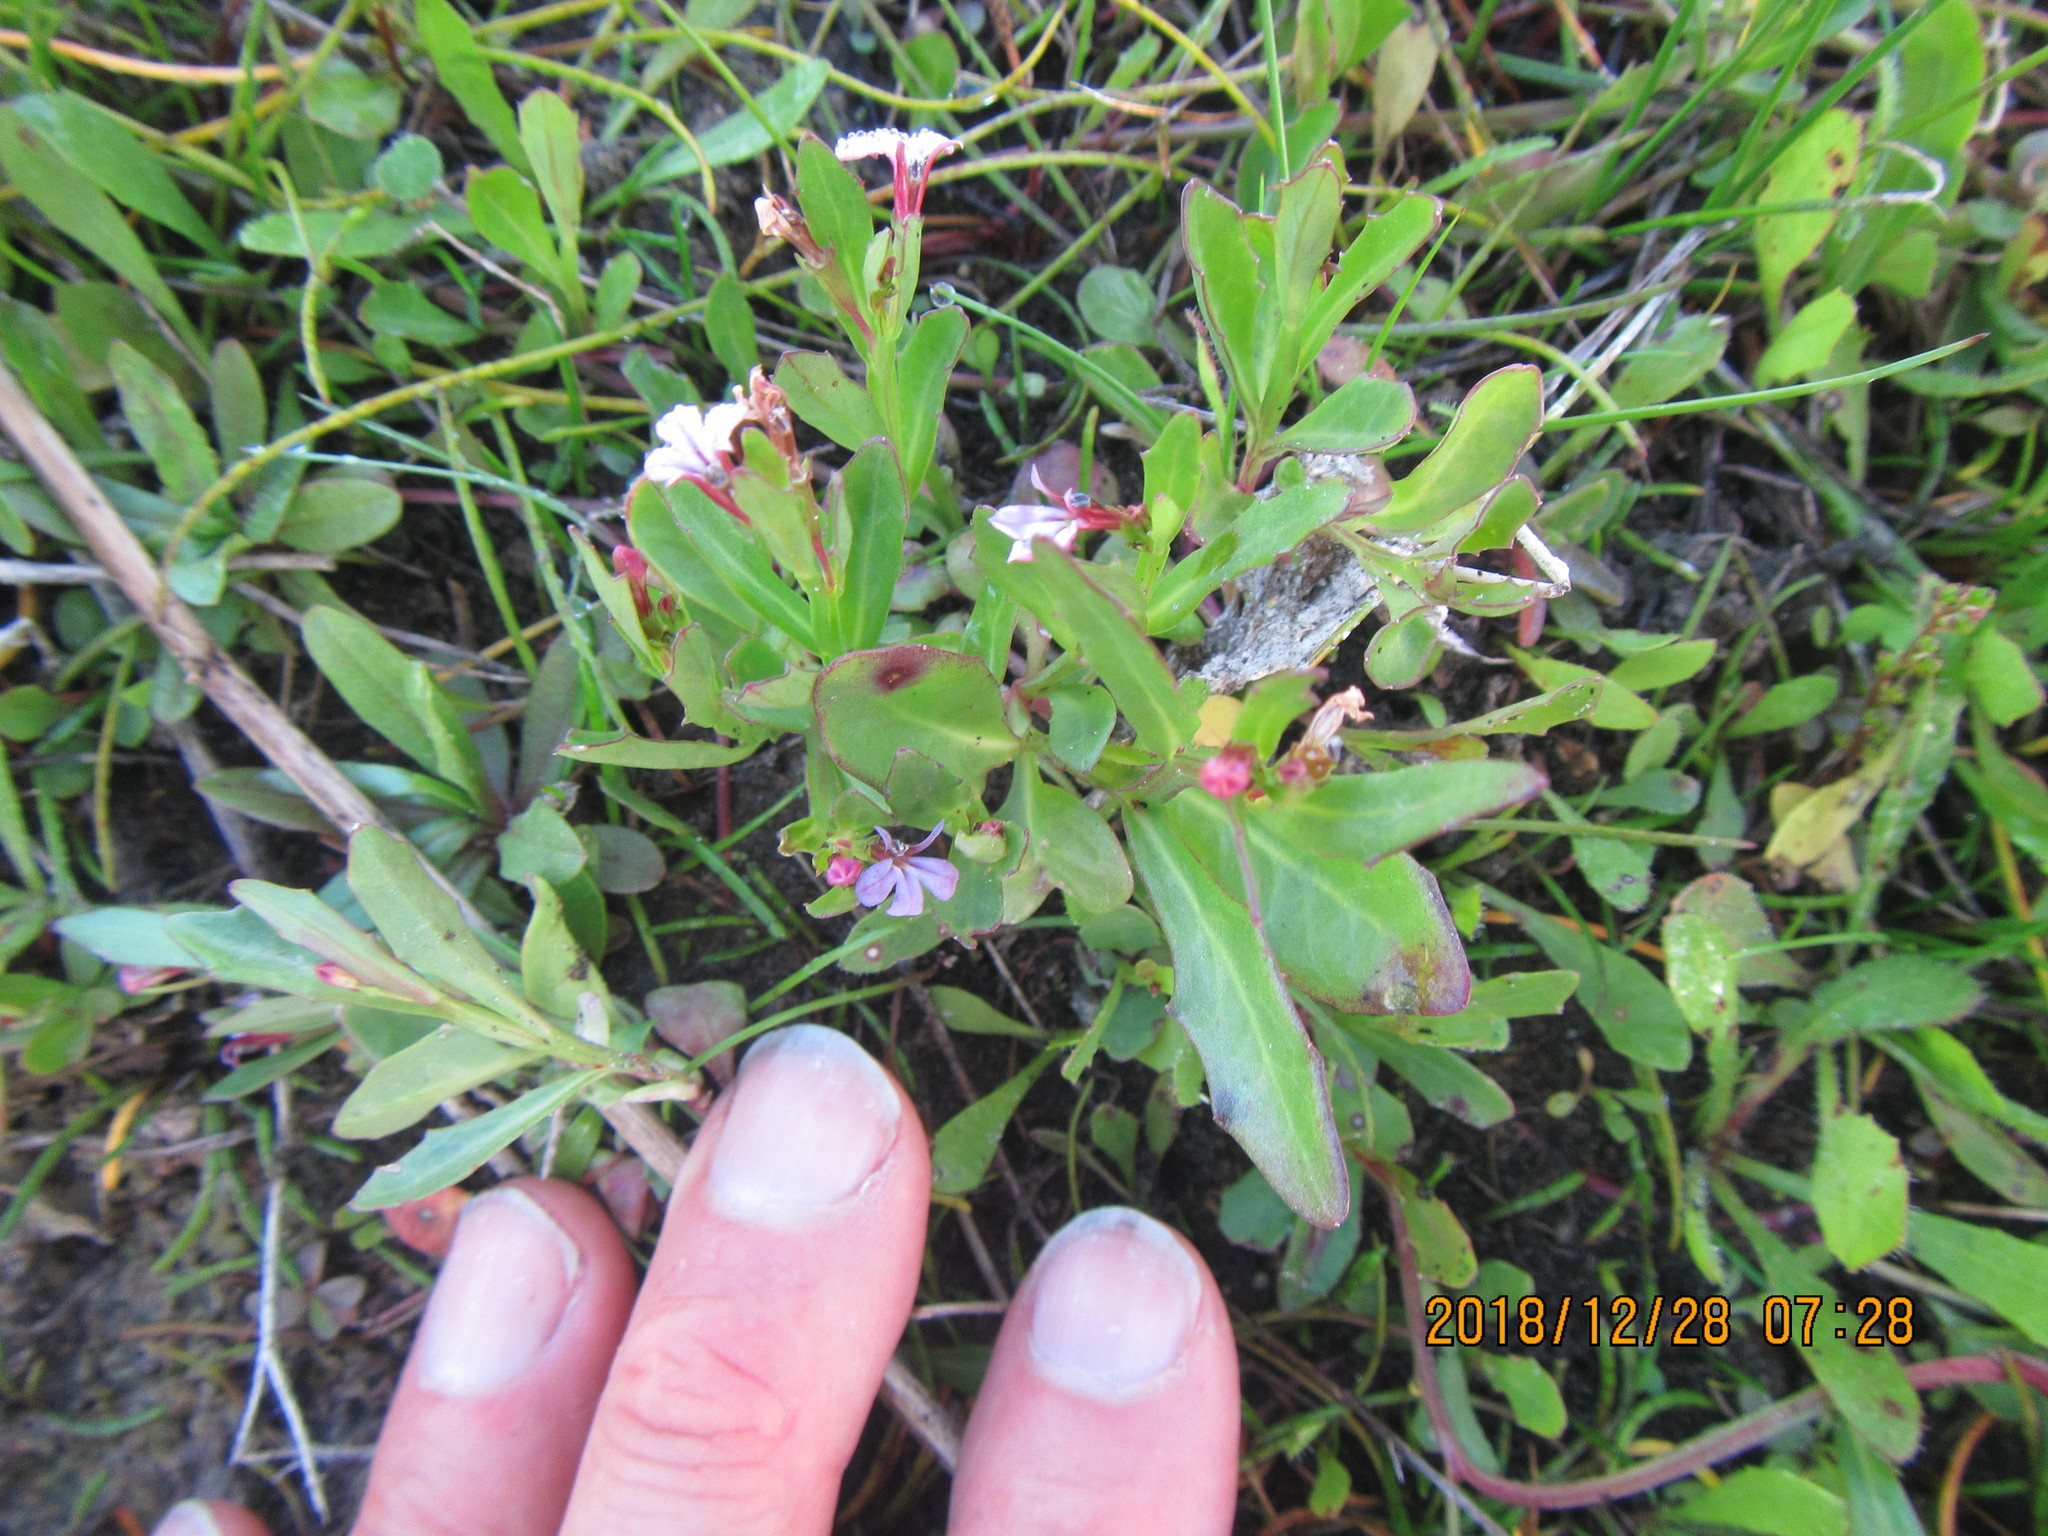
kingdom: Plantae
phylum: Tracheophyta
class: Magnoliopsida
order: Asterales
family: Campanulaceae
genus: Lobelia
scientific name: Lobelia anceps
